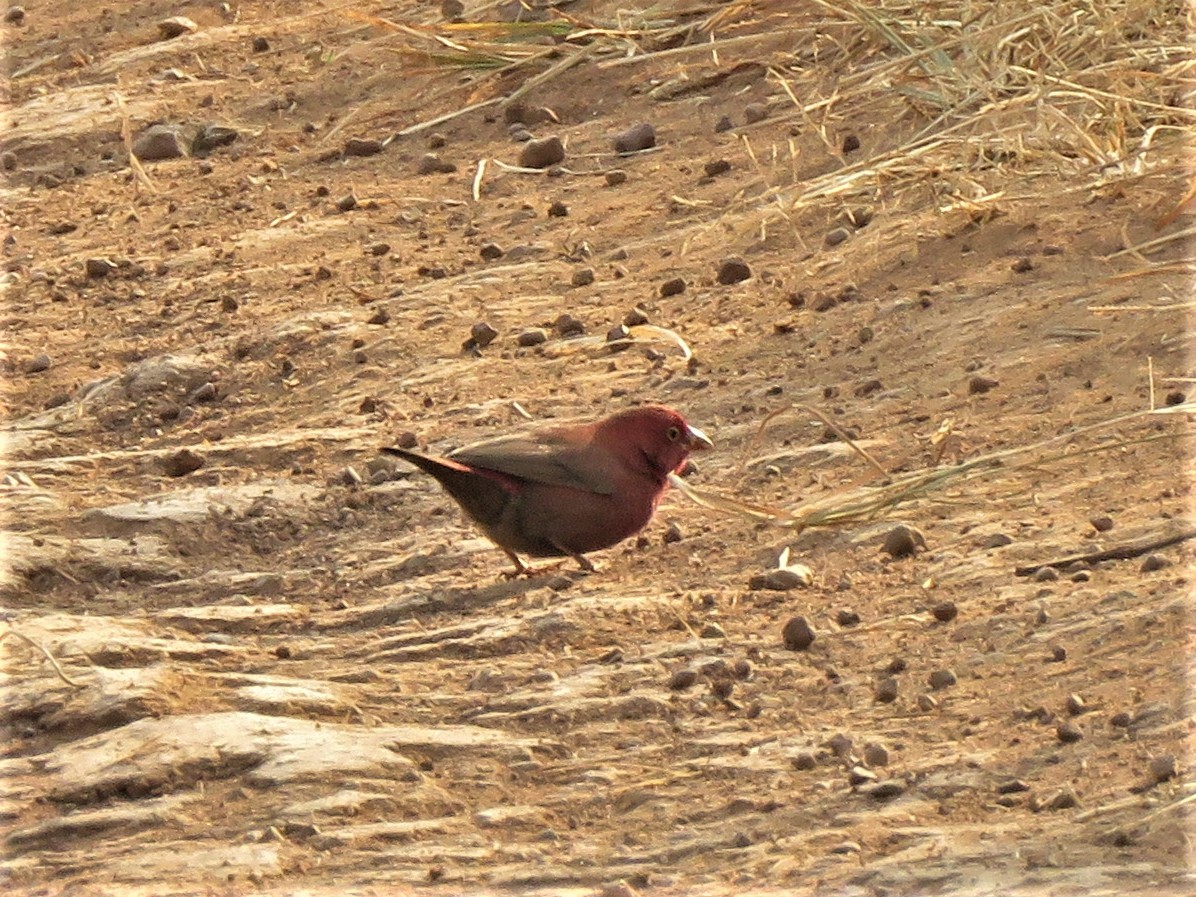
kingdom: Animalia
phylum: Chordata
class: Aves
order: Passeriformes
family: Estrildidae
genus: Lagonosticta
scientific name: Lagonosticta senegala
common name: Red-billed firefinch
